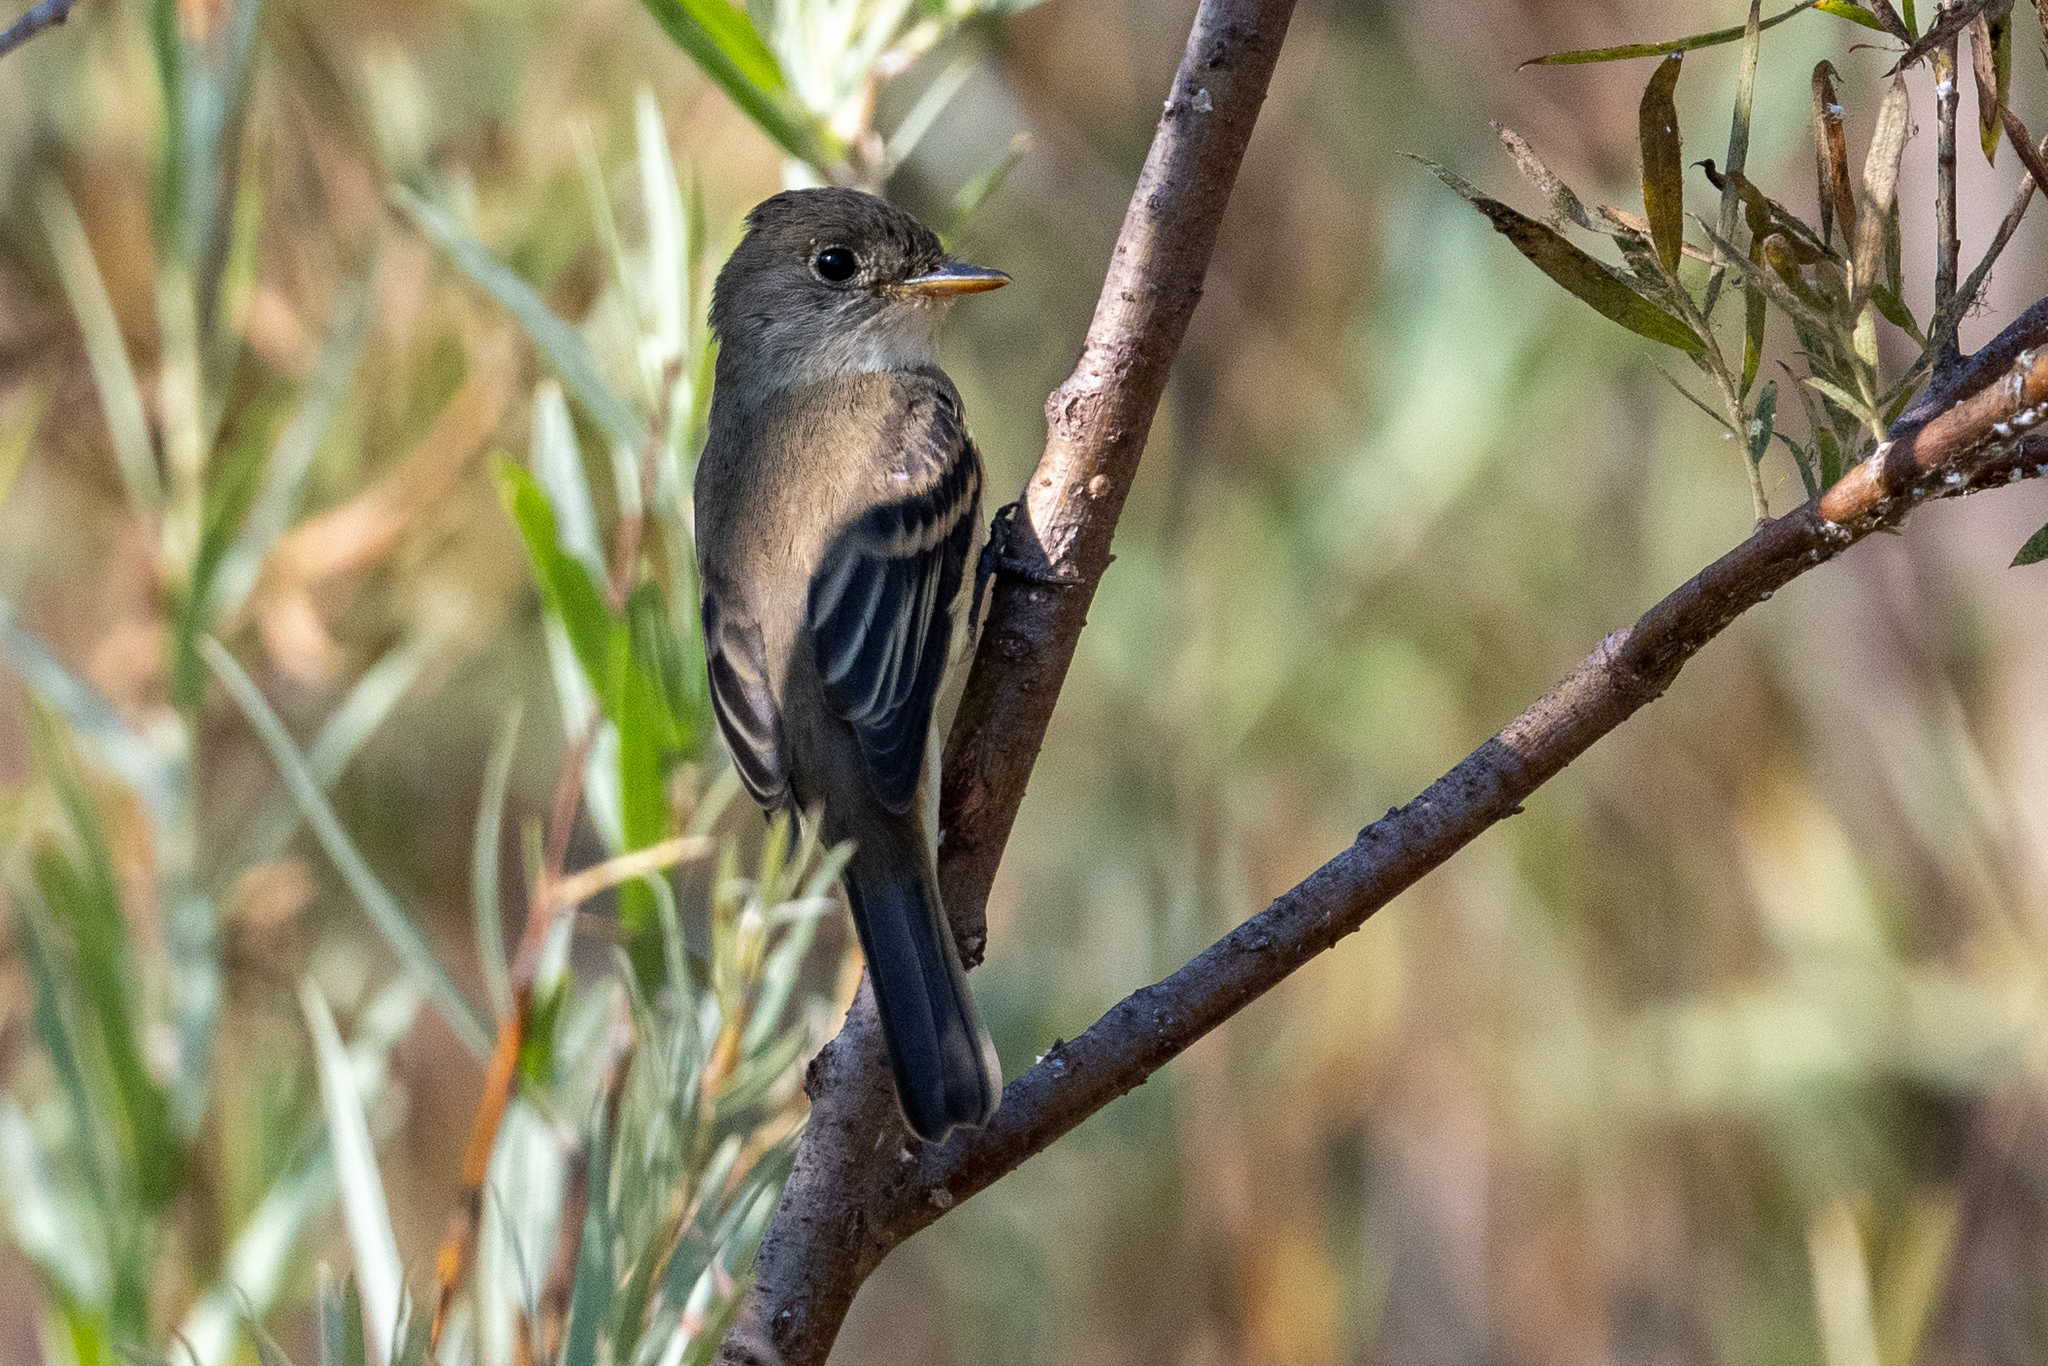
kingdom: Animalia
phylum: Chordata
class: Aves
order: Passeriformes
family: Tyrannidae
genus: Empidonax
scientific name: Empidonax traillii
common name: Willow flycatcher
